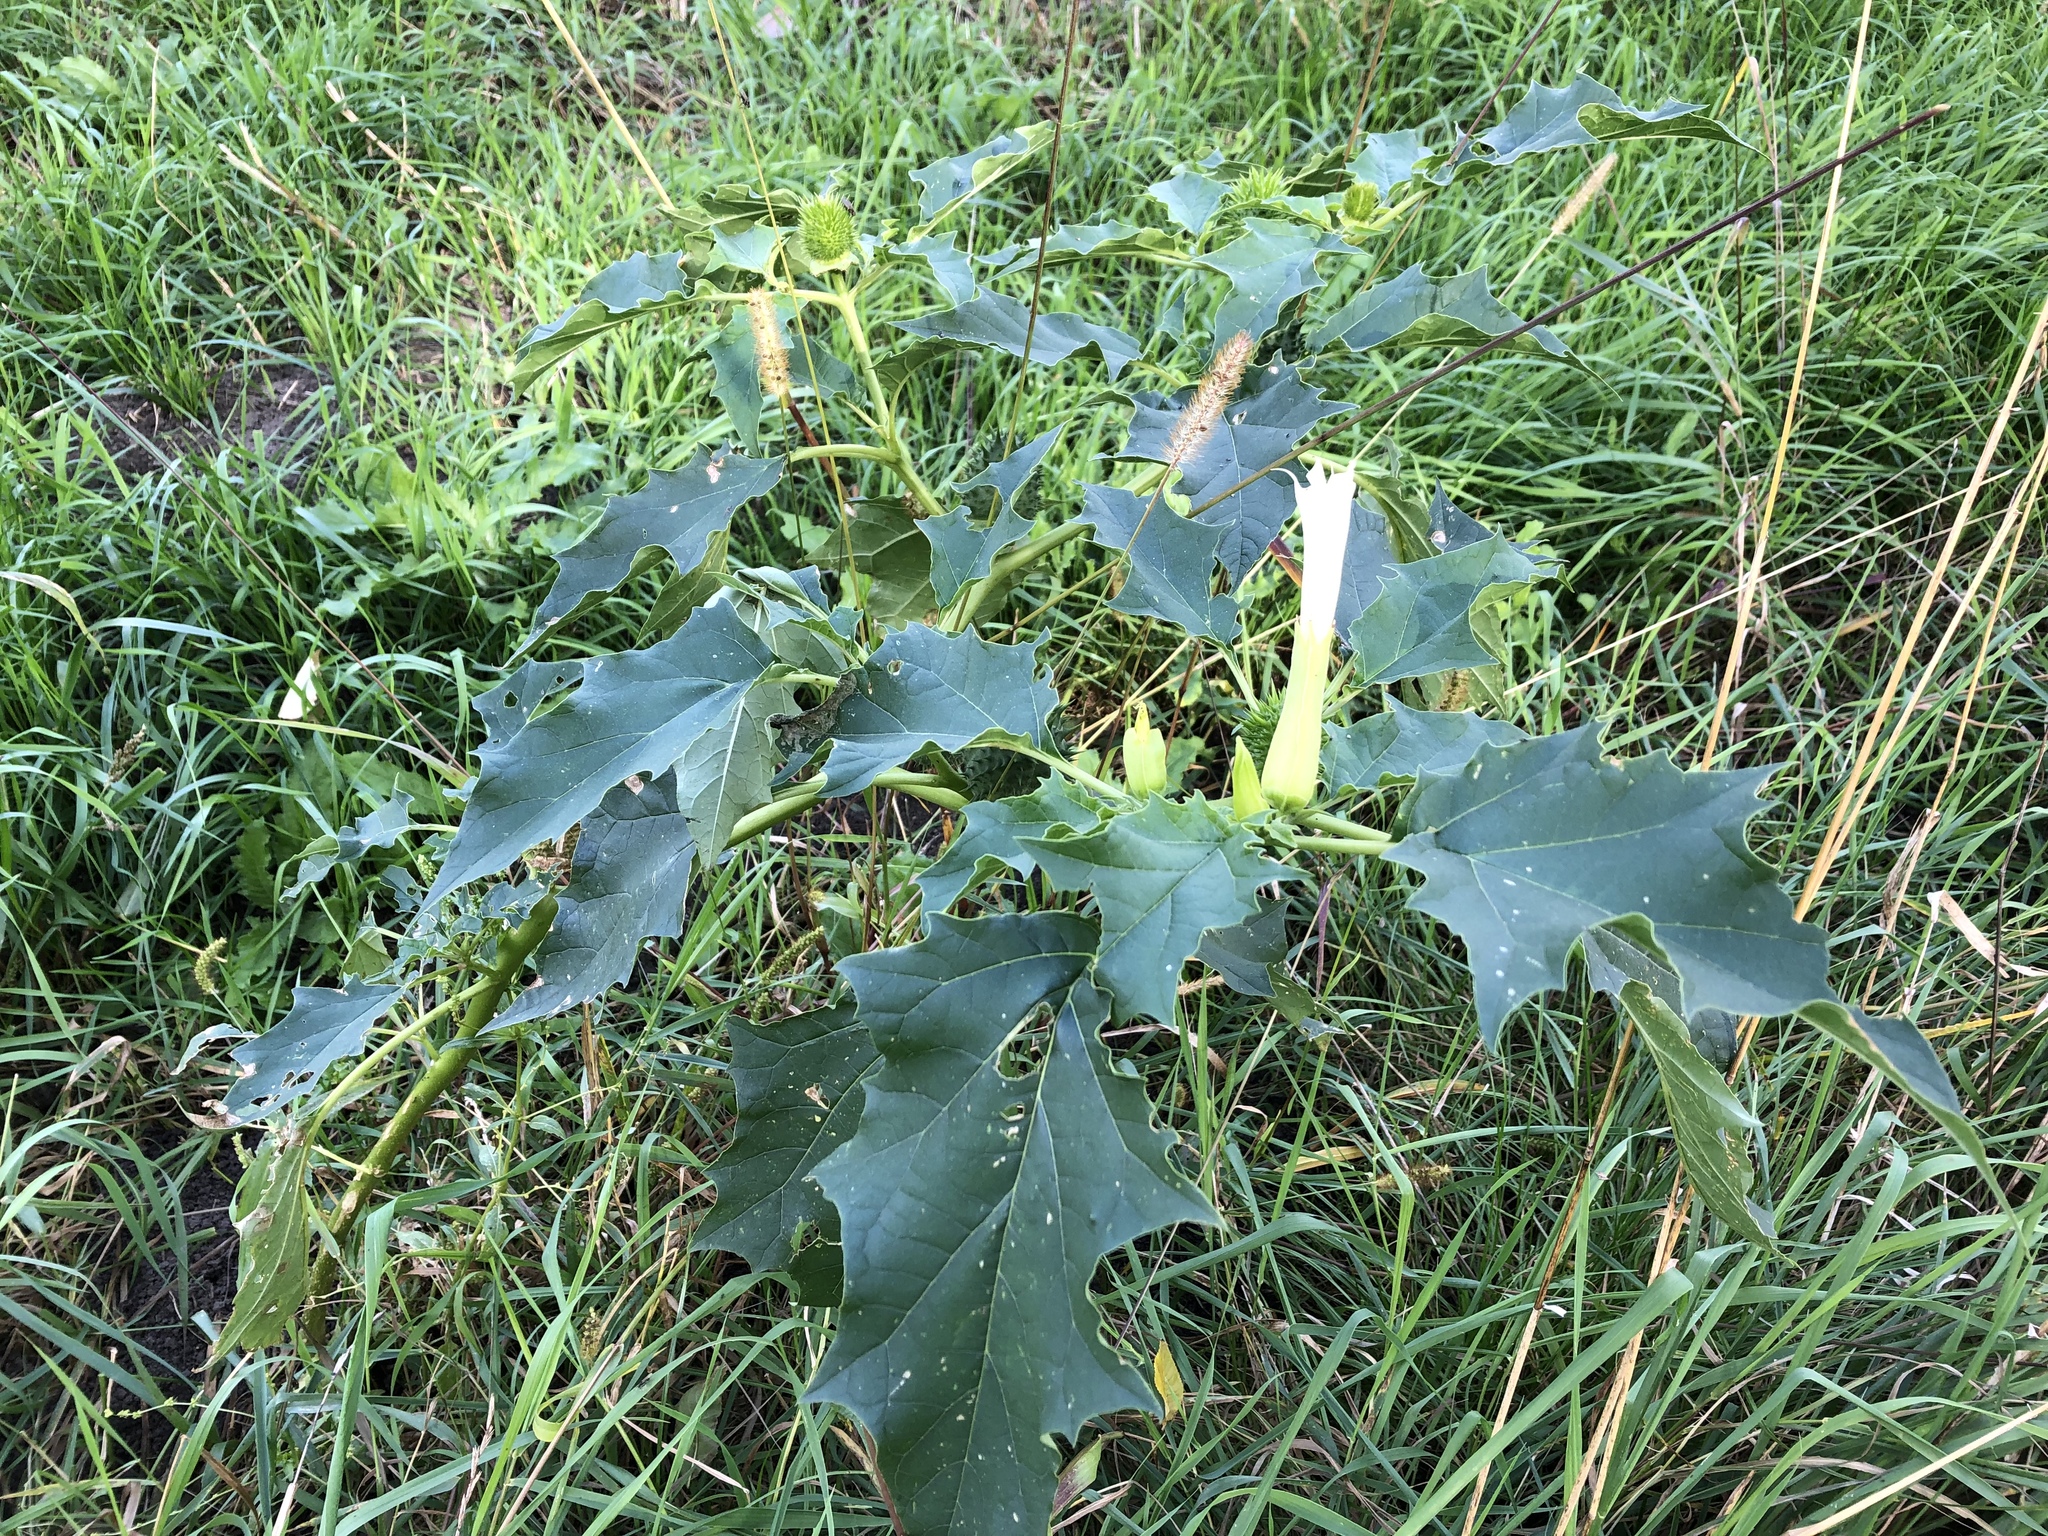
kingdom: Plantae
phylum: Tracheophyta
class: Magnoliopsida
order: Solanales
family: Solanaceae
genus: Datura
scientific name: Datura stramonium
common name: Thorn-apple
